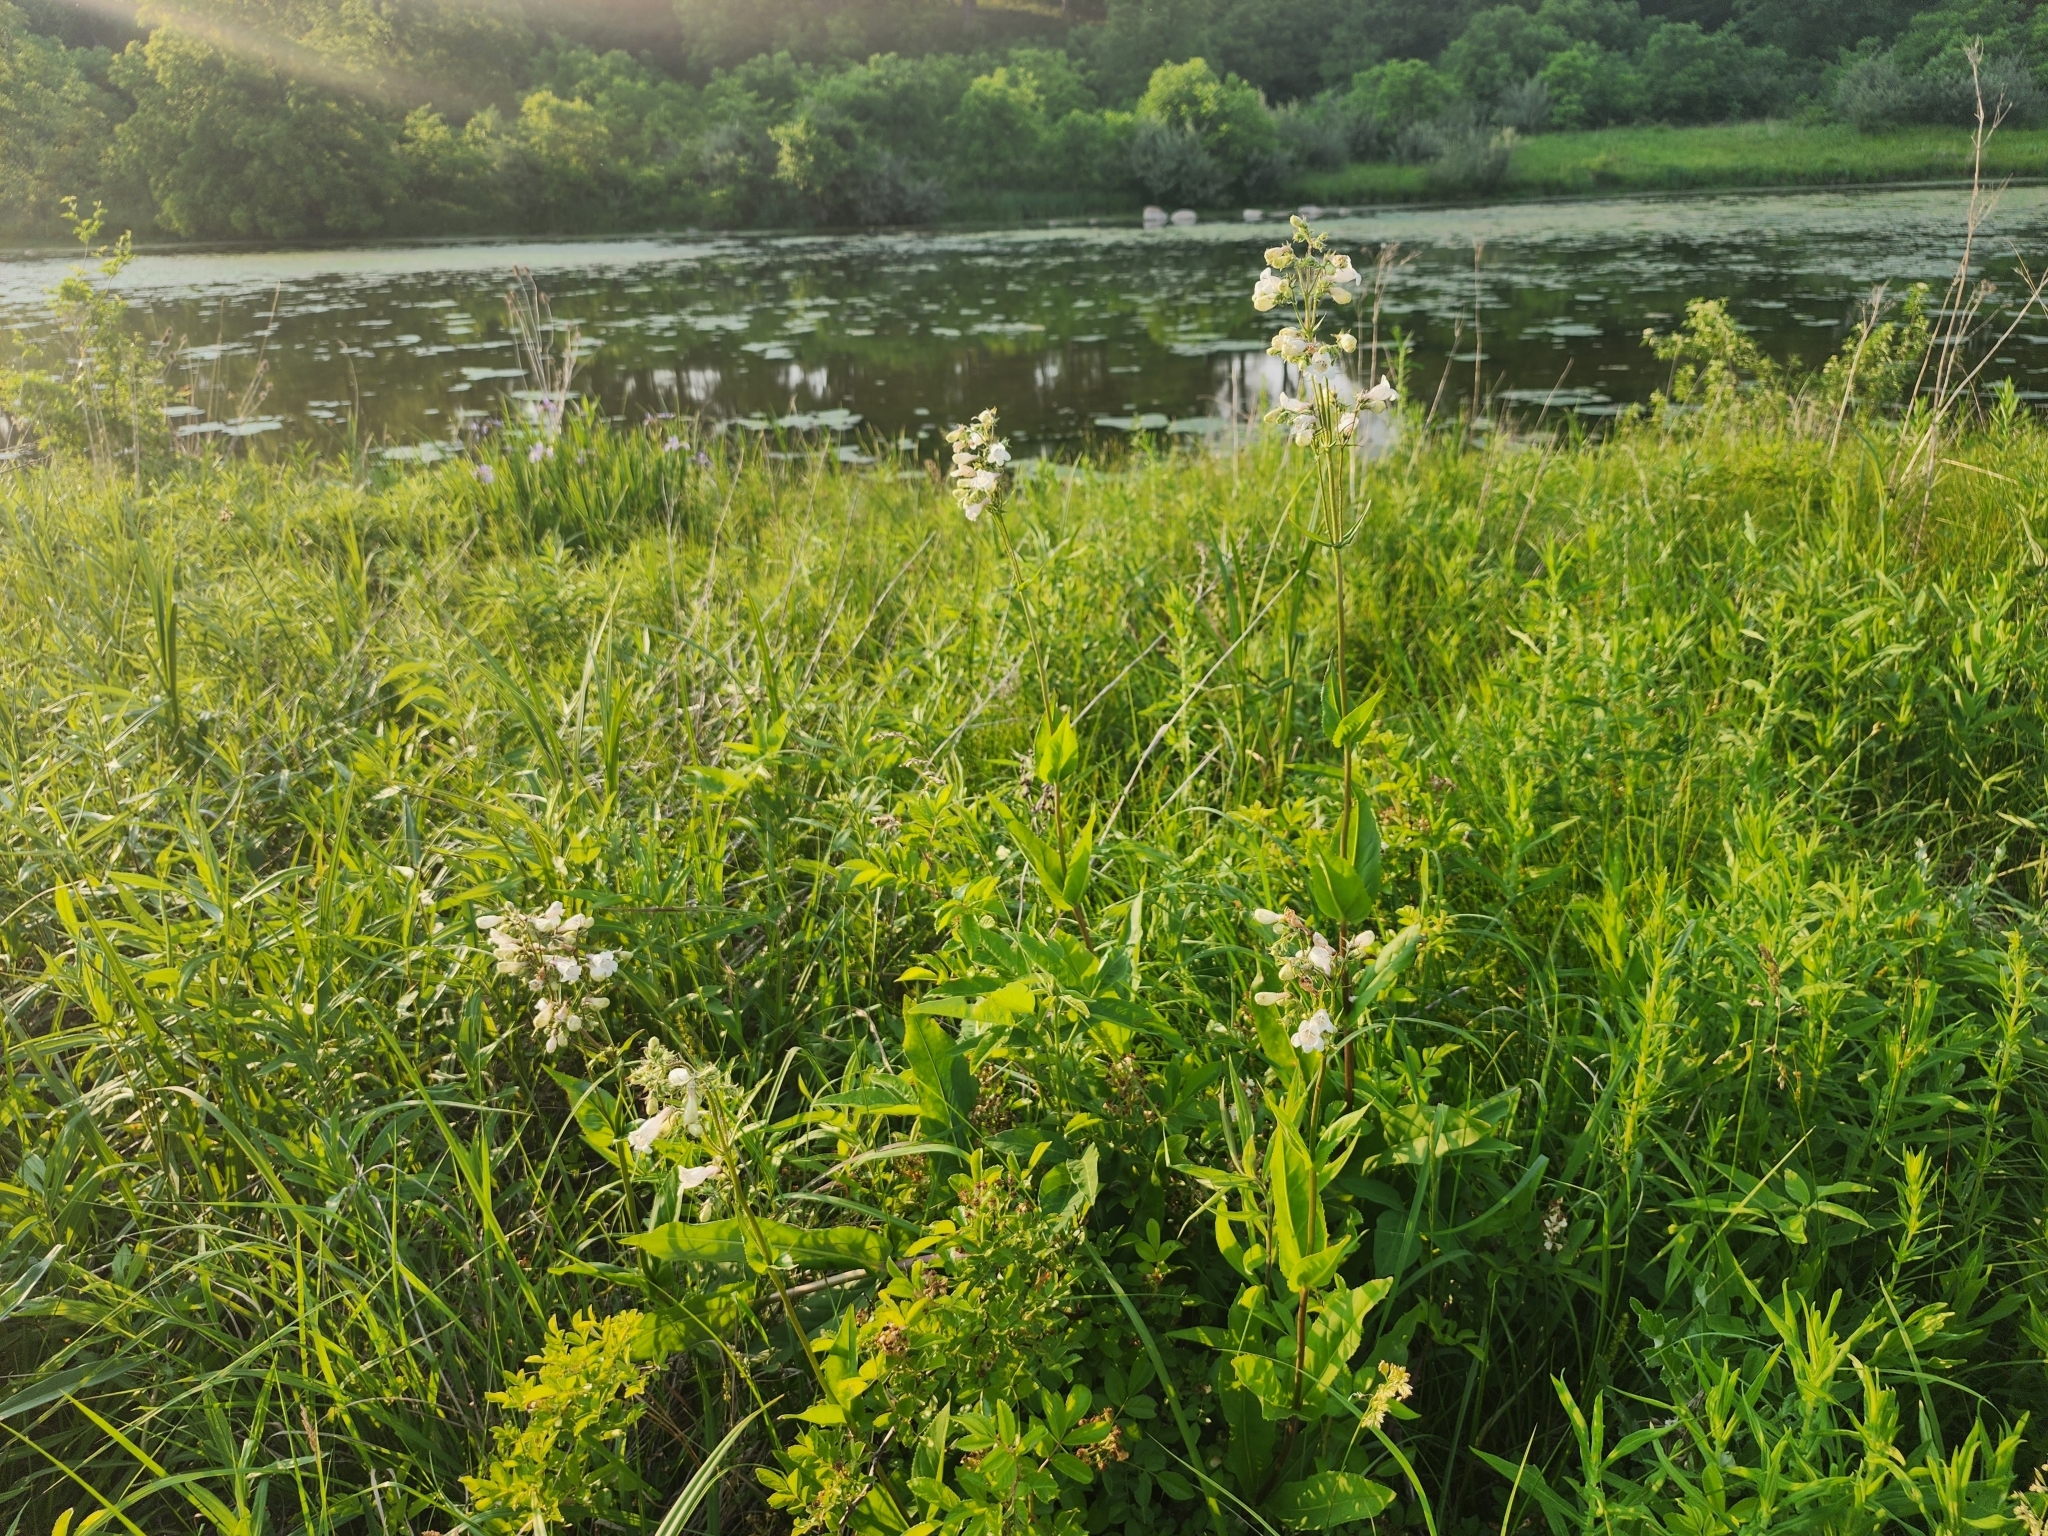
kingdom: Plantae
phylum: Tracheophyta
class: Magnoliopsida
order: Lamiales
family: Plantaginaceae
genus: Penstemon
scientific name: Penstemon digitalis
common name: Foxglove beardtongue
